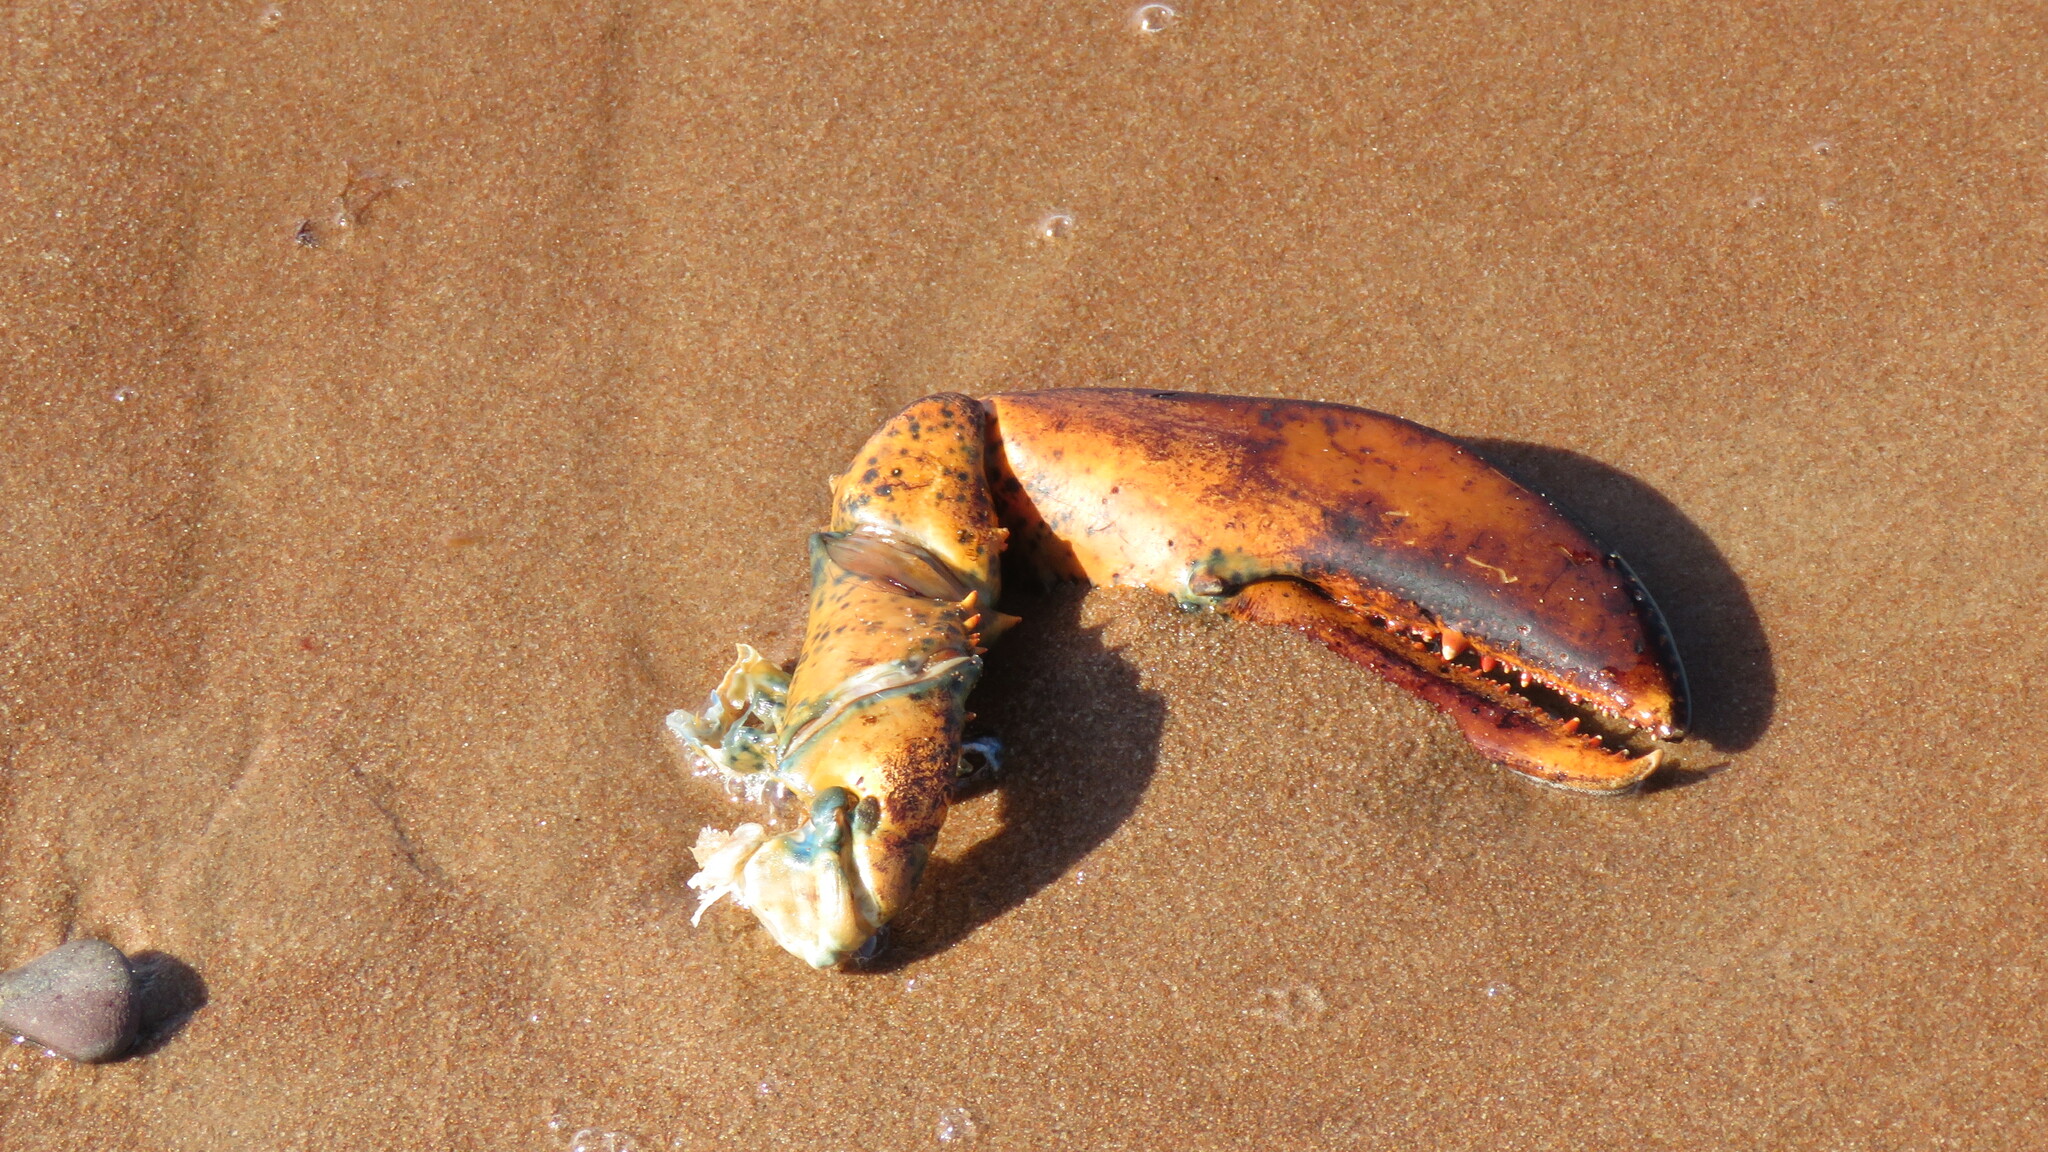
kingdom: Animalia
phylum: Arthropoda
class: Malacostraca
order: Decapoda
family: Nephropidae
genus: Homarus
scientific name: Homarus americanus
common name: American lobster
